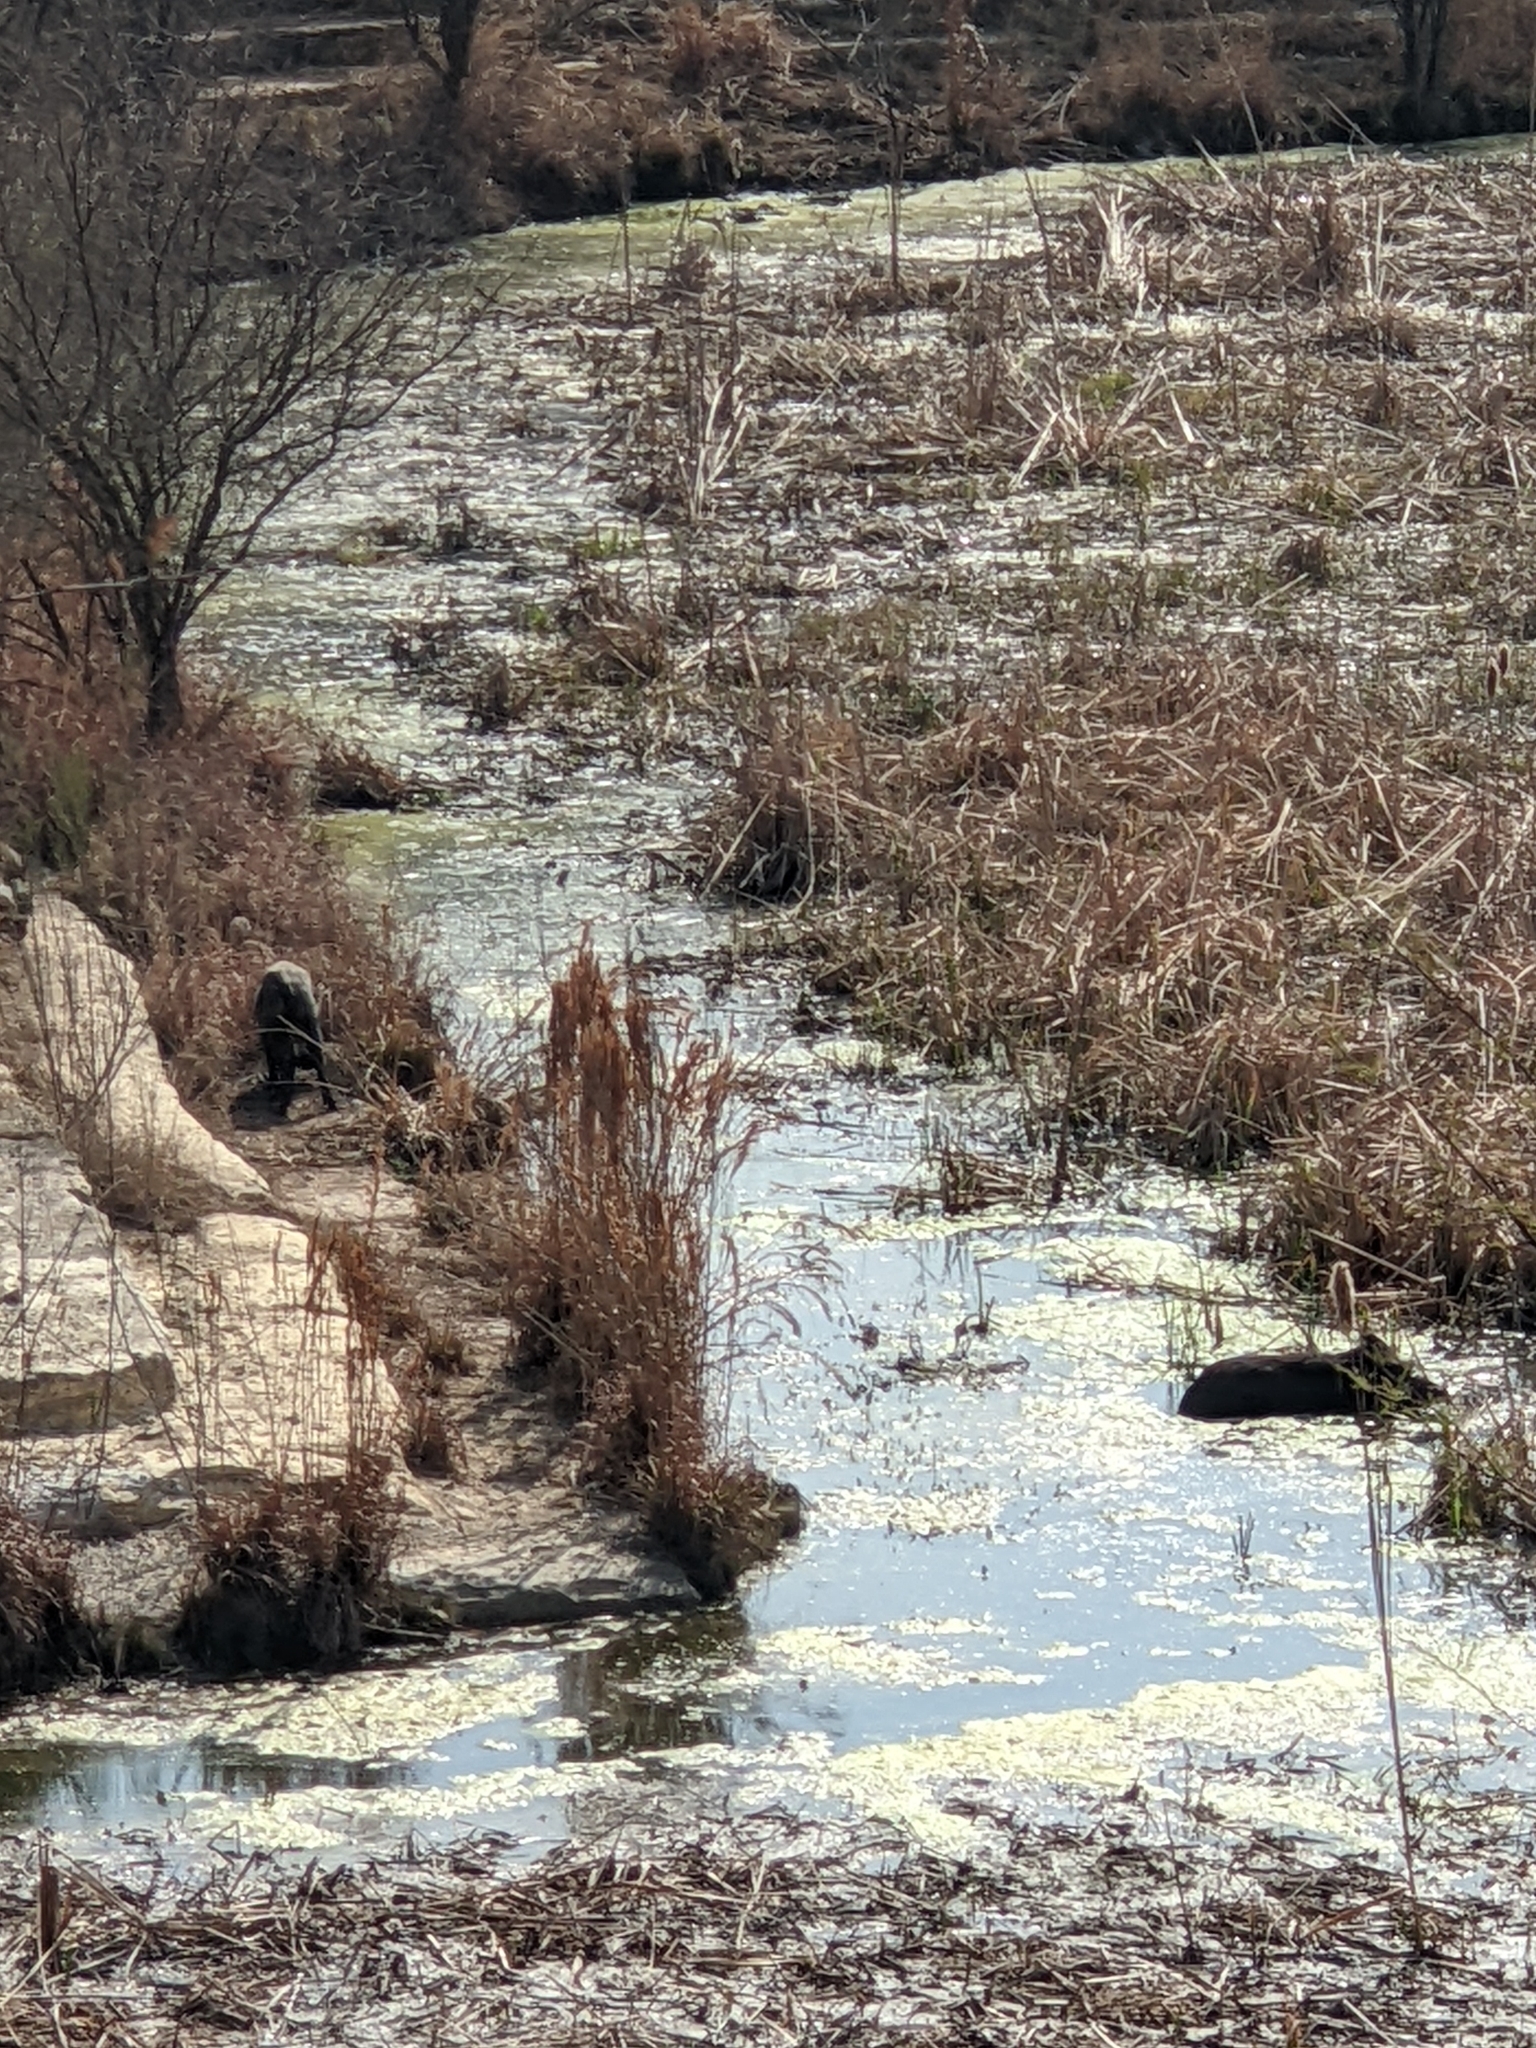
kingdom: Animalia
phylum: Chordata
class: Mammalia
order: Artiodactyla
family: Suidae
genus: Sus
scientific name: Sus scrofa
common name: Wild boar
